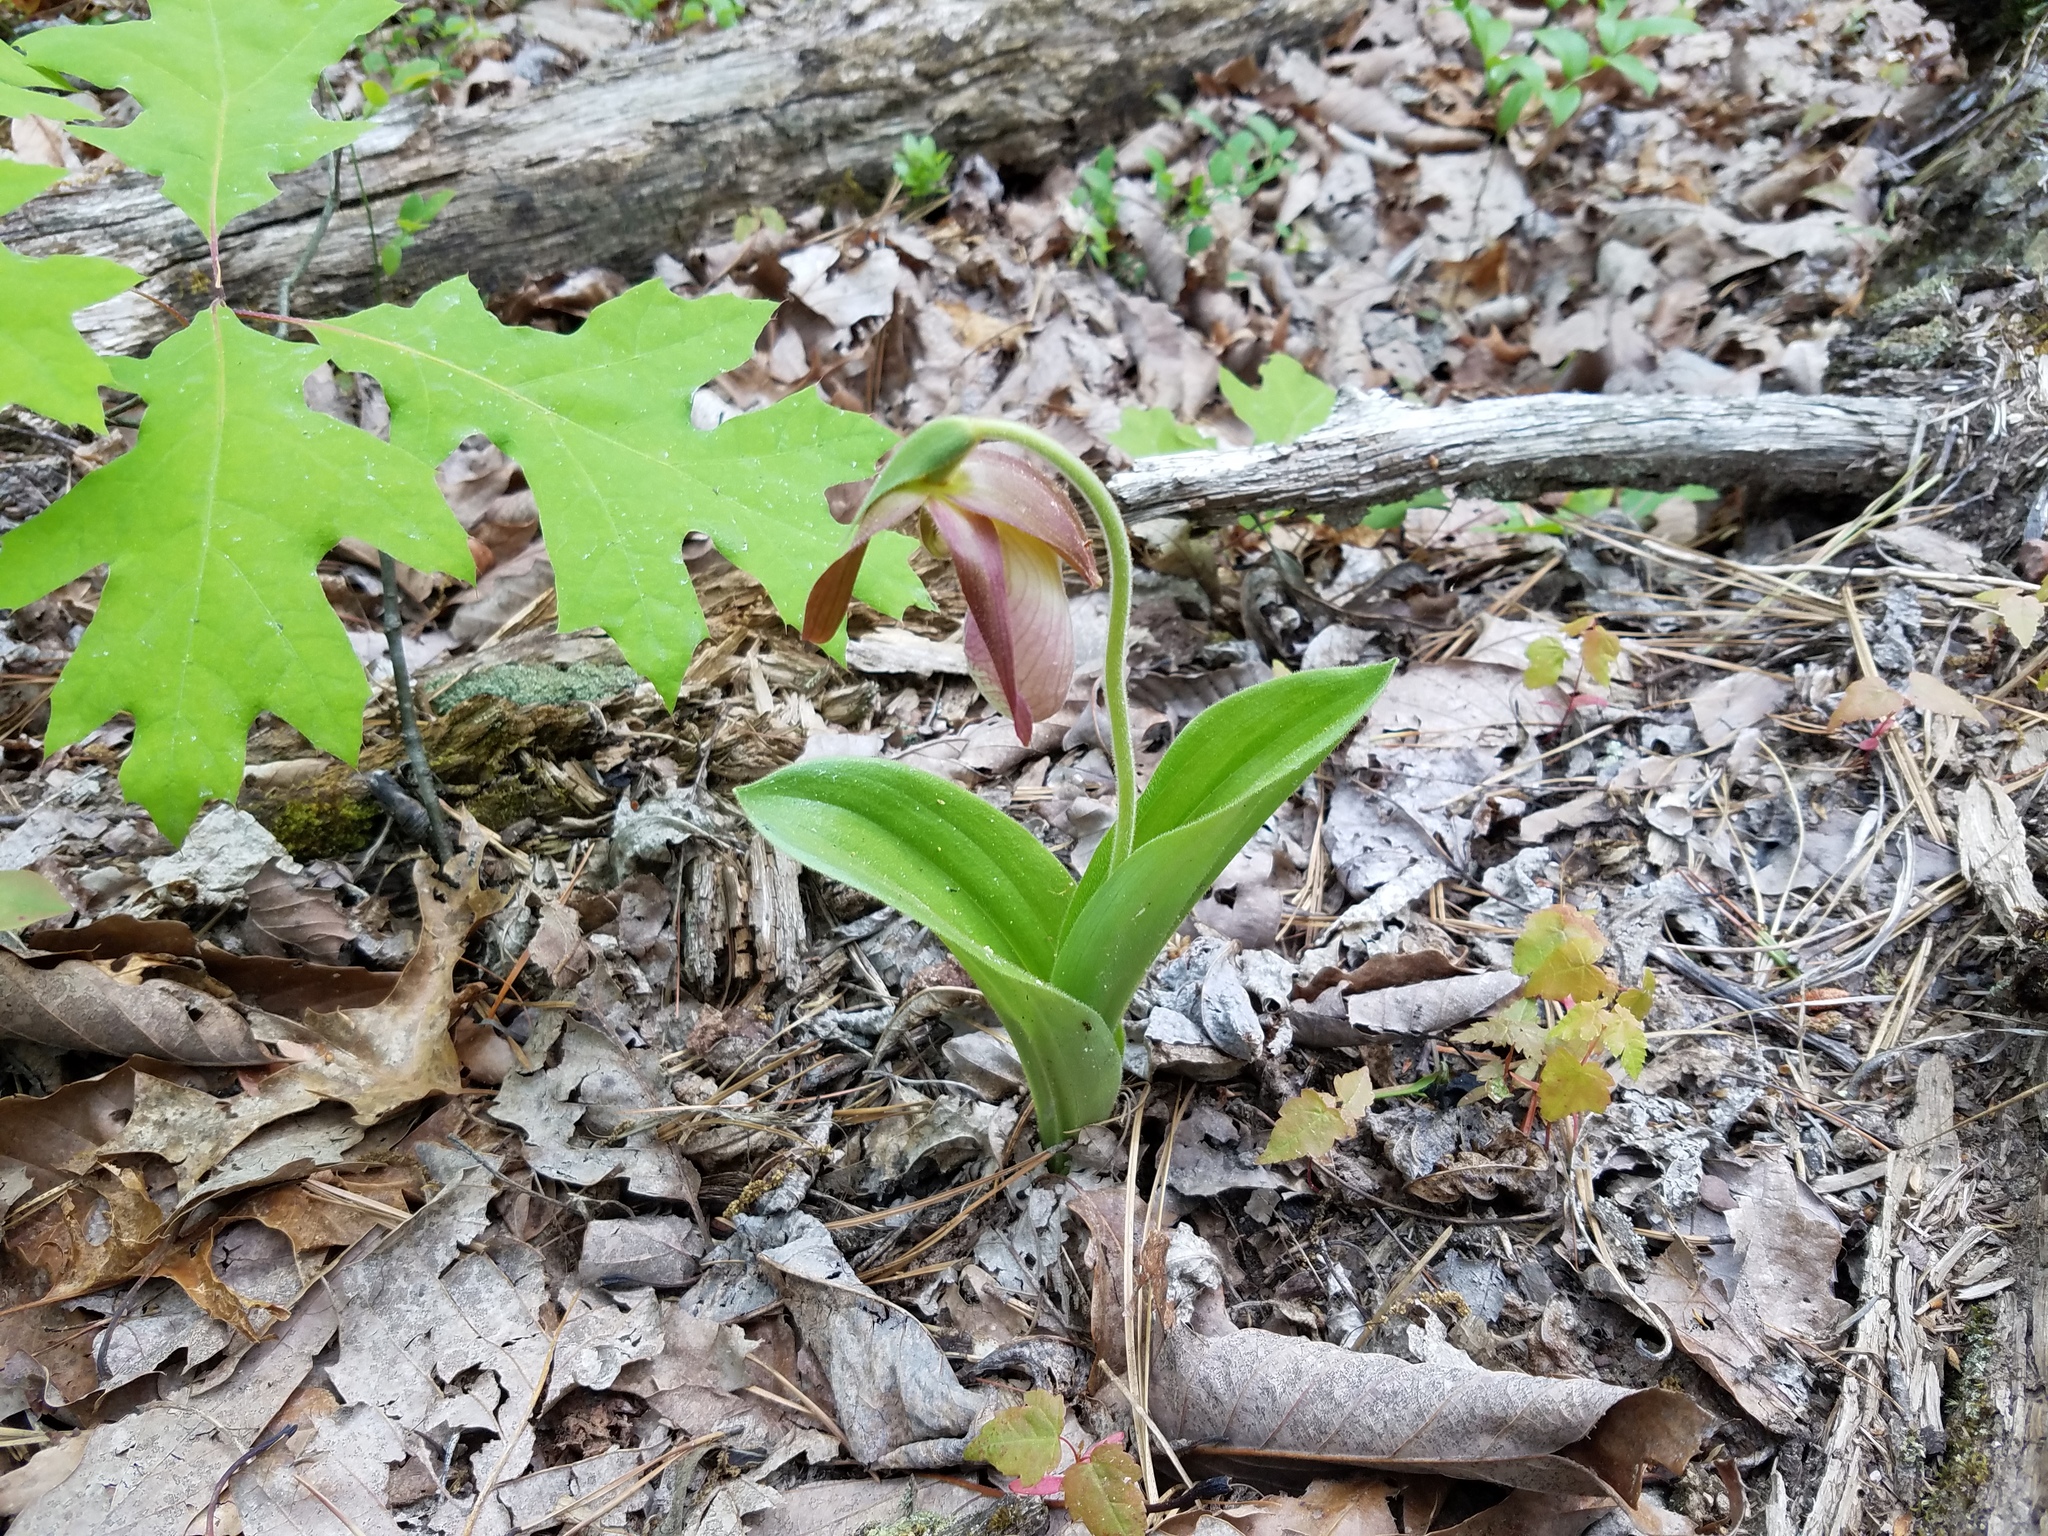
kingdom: Plantae
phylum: Tracheophyta
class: Liliopsida
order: Asparagales
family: Orchidaceae
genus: Cypripedium
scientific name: Cypripedium acaule
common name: Pink lady's-slipper
